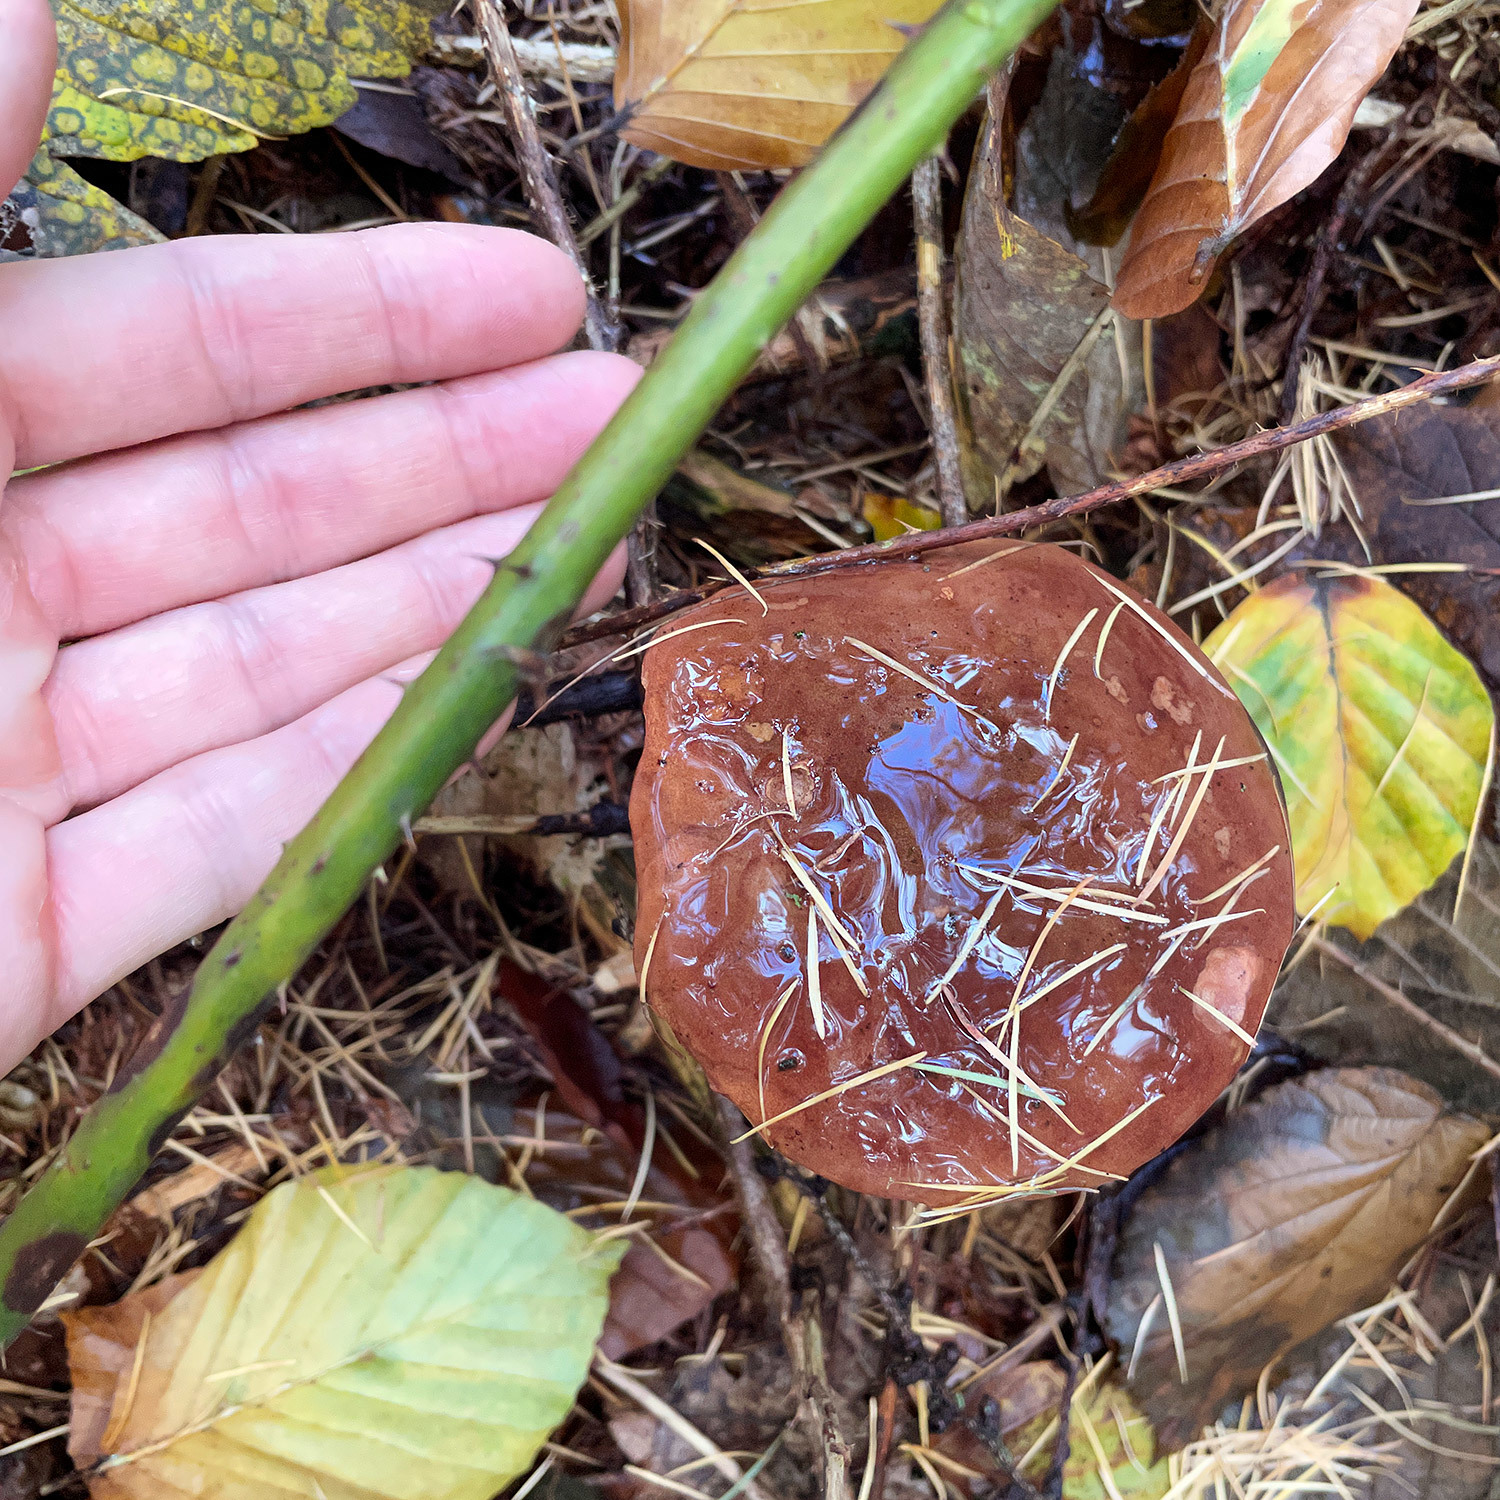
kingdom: Fungi
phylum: Basidiomycota
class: Agaricomycetes
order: Boletales
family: Boletaceae
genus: Imleria
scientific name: Imleria badia
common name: Bay bolete
